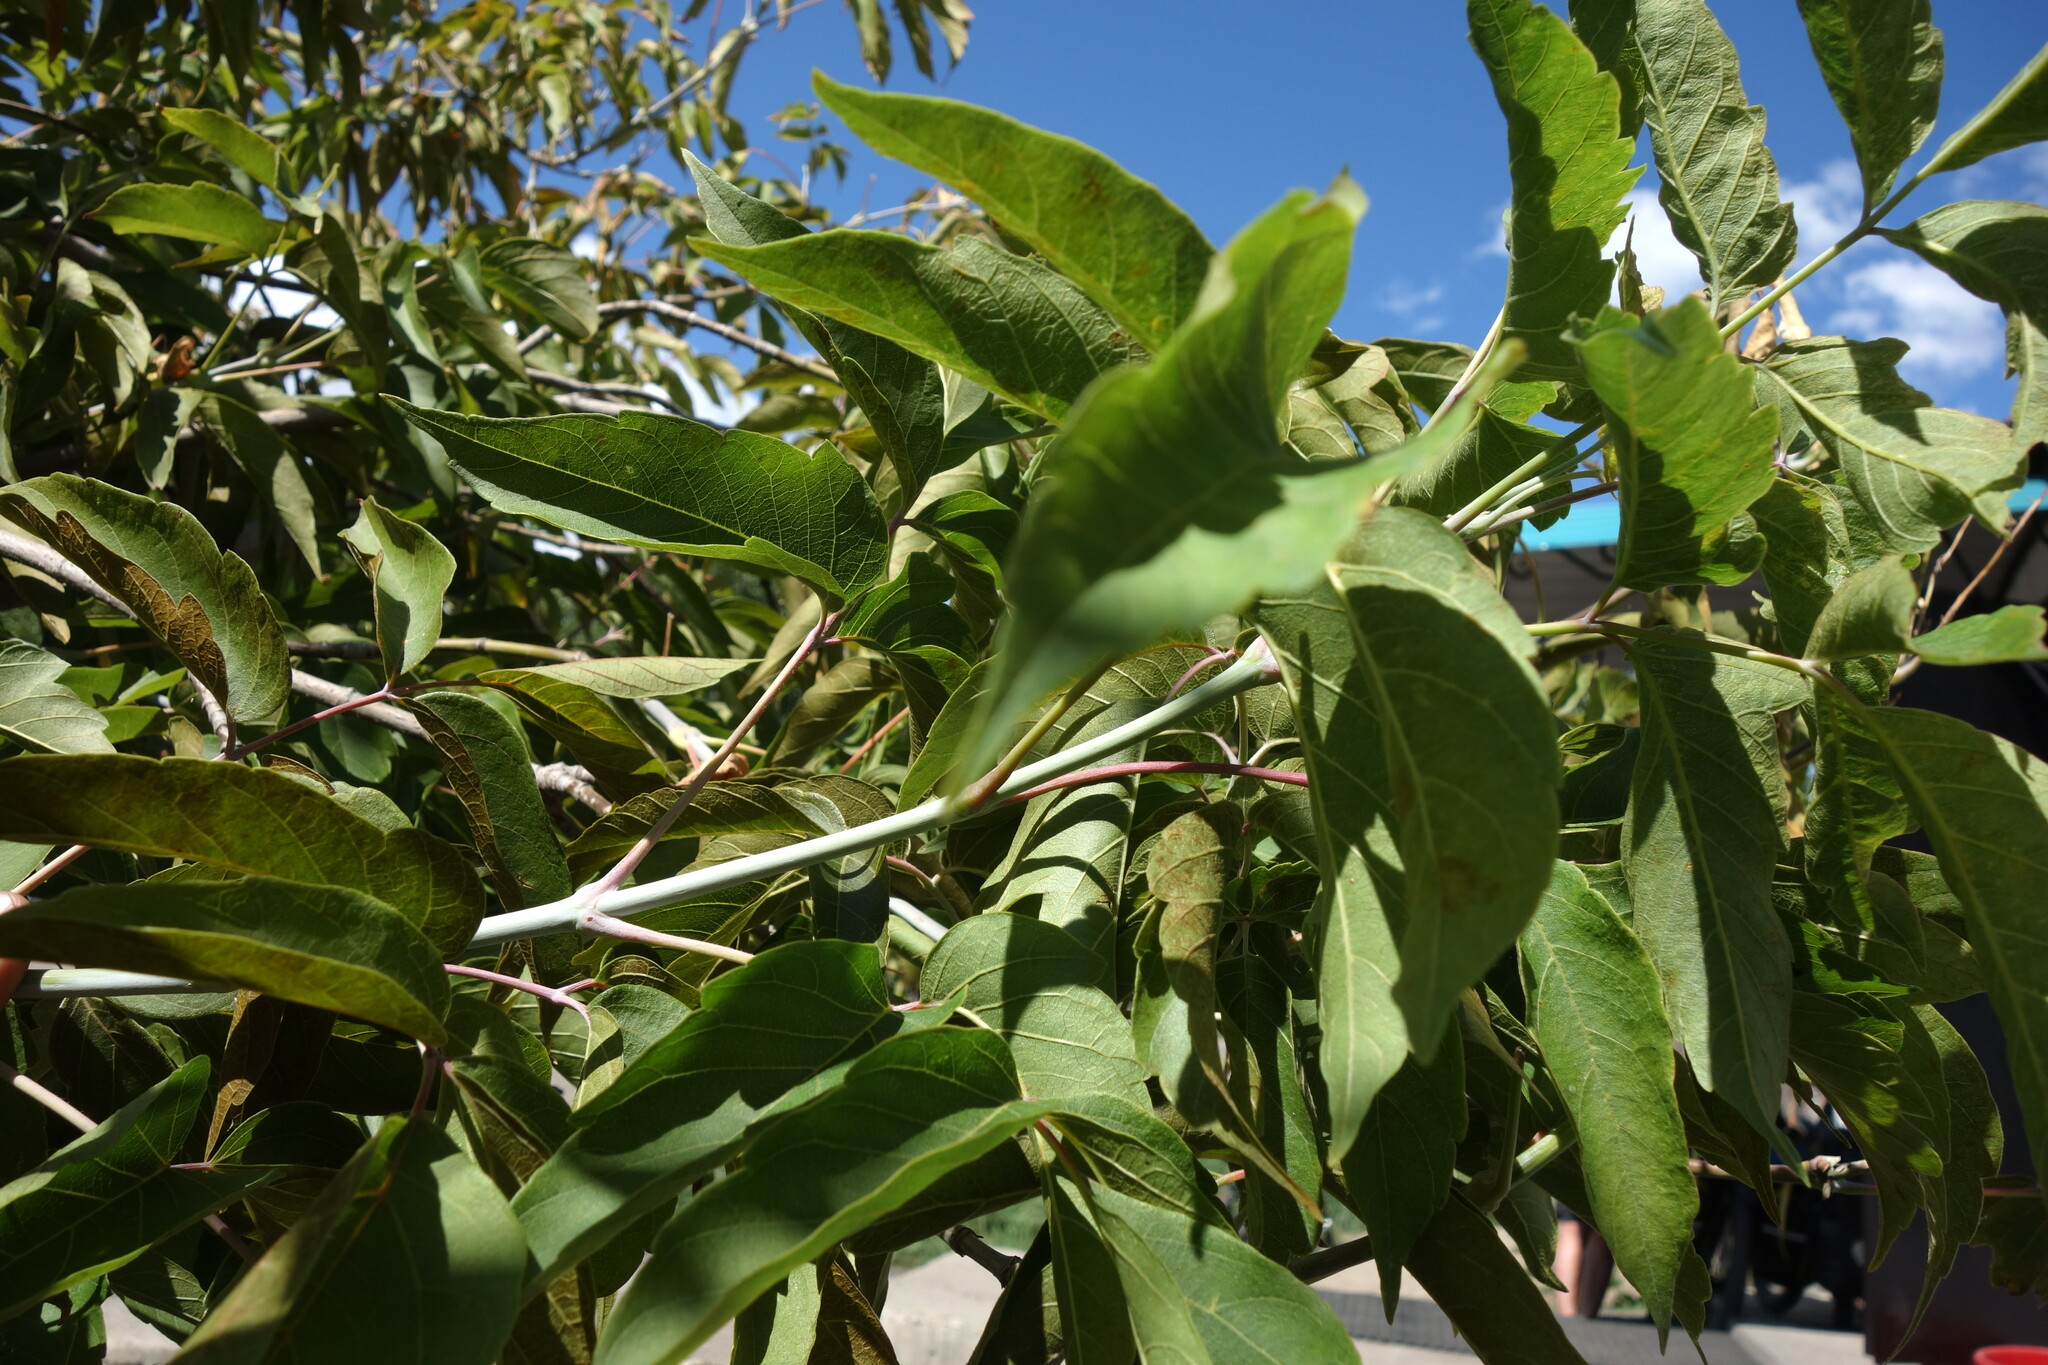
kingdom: Plantae
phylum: Tracheophyta
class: Magnoliopsida
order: Sapindales
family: Sapindaceae
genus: Acer
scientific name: Acer negundo
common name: Ashleaf maple
